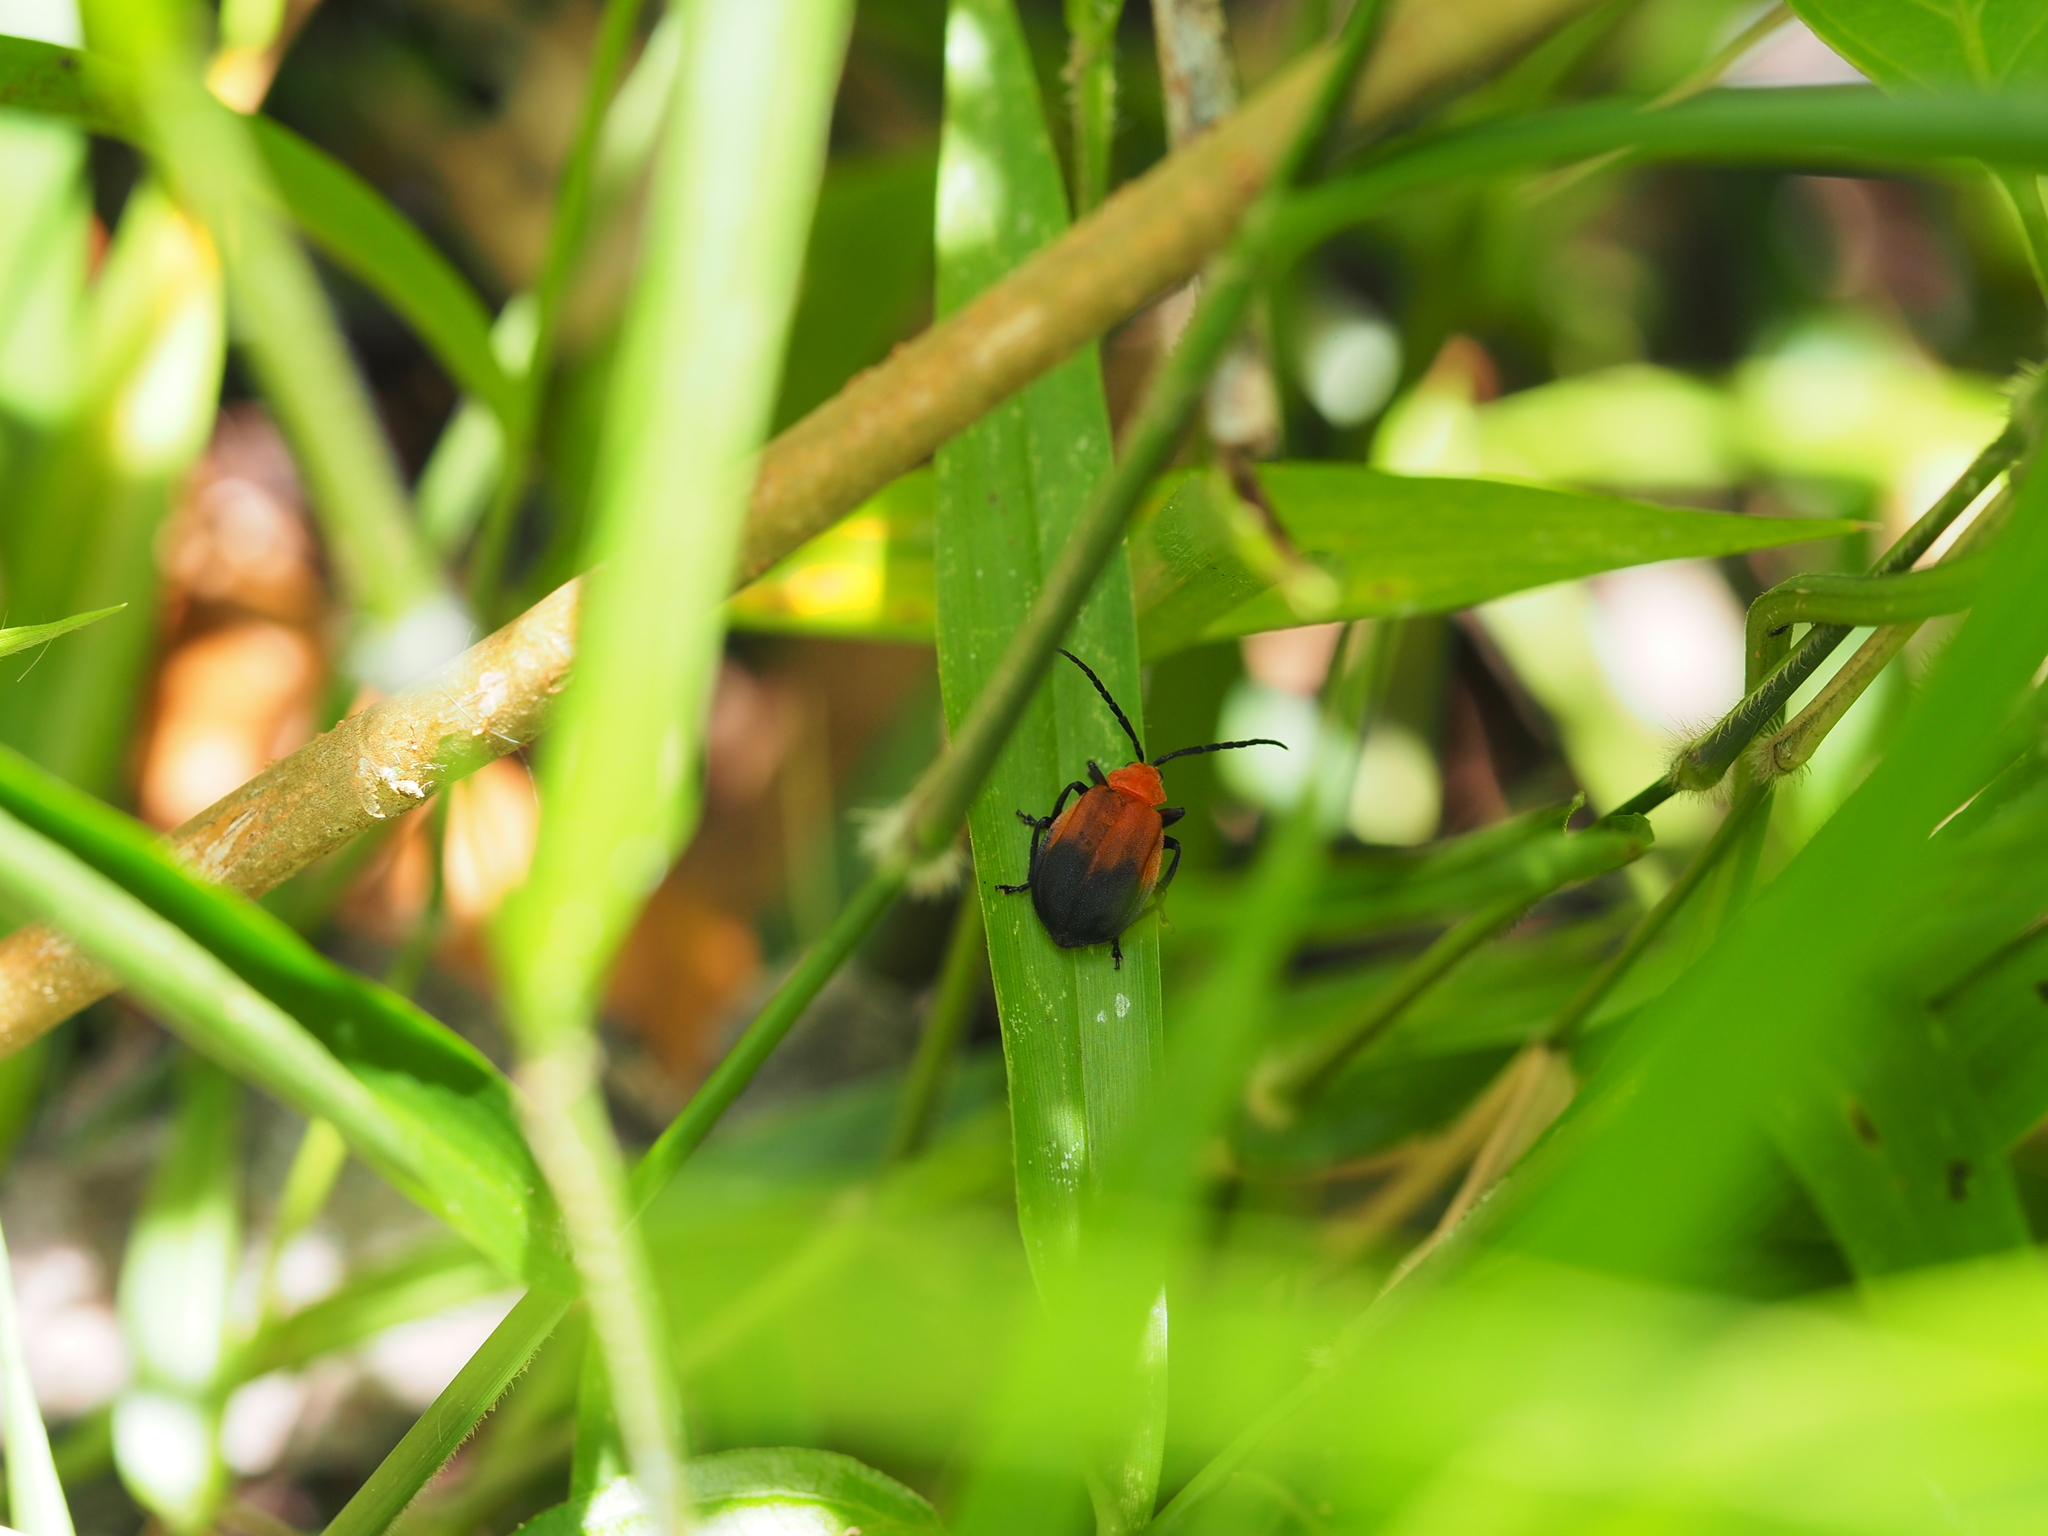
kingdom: Animalia
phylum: Arthropoda
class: Insecta
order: Coleoptera
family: Chrysomelidae
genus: Platycesta
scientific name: Platycesta
